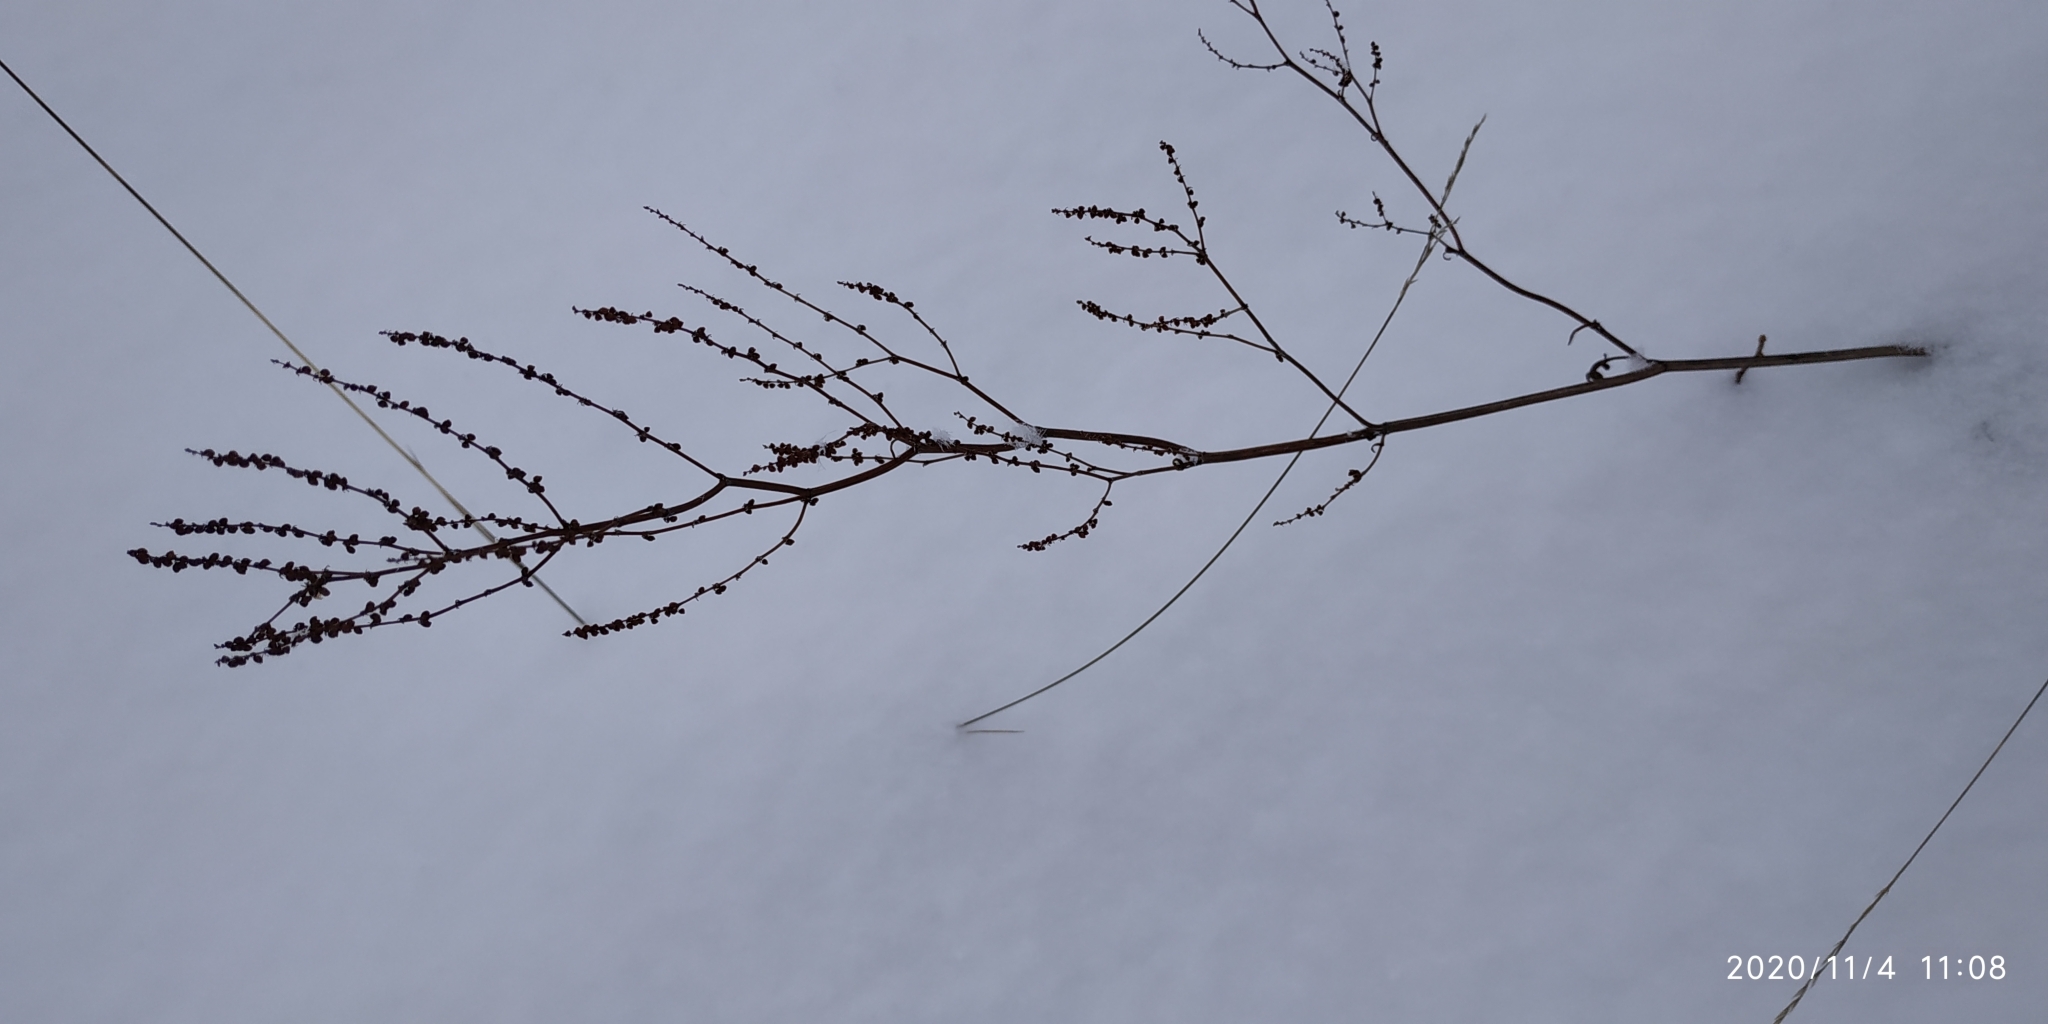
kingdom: Plantae
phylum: Tracheophyta
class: Magnoliopsida
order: Caryophyllales
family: Polygonaceae
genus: Rumex
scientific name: Rumex acetosella
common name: Common sheep sorrel
